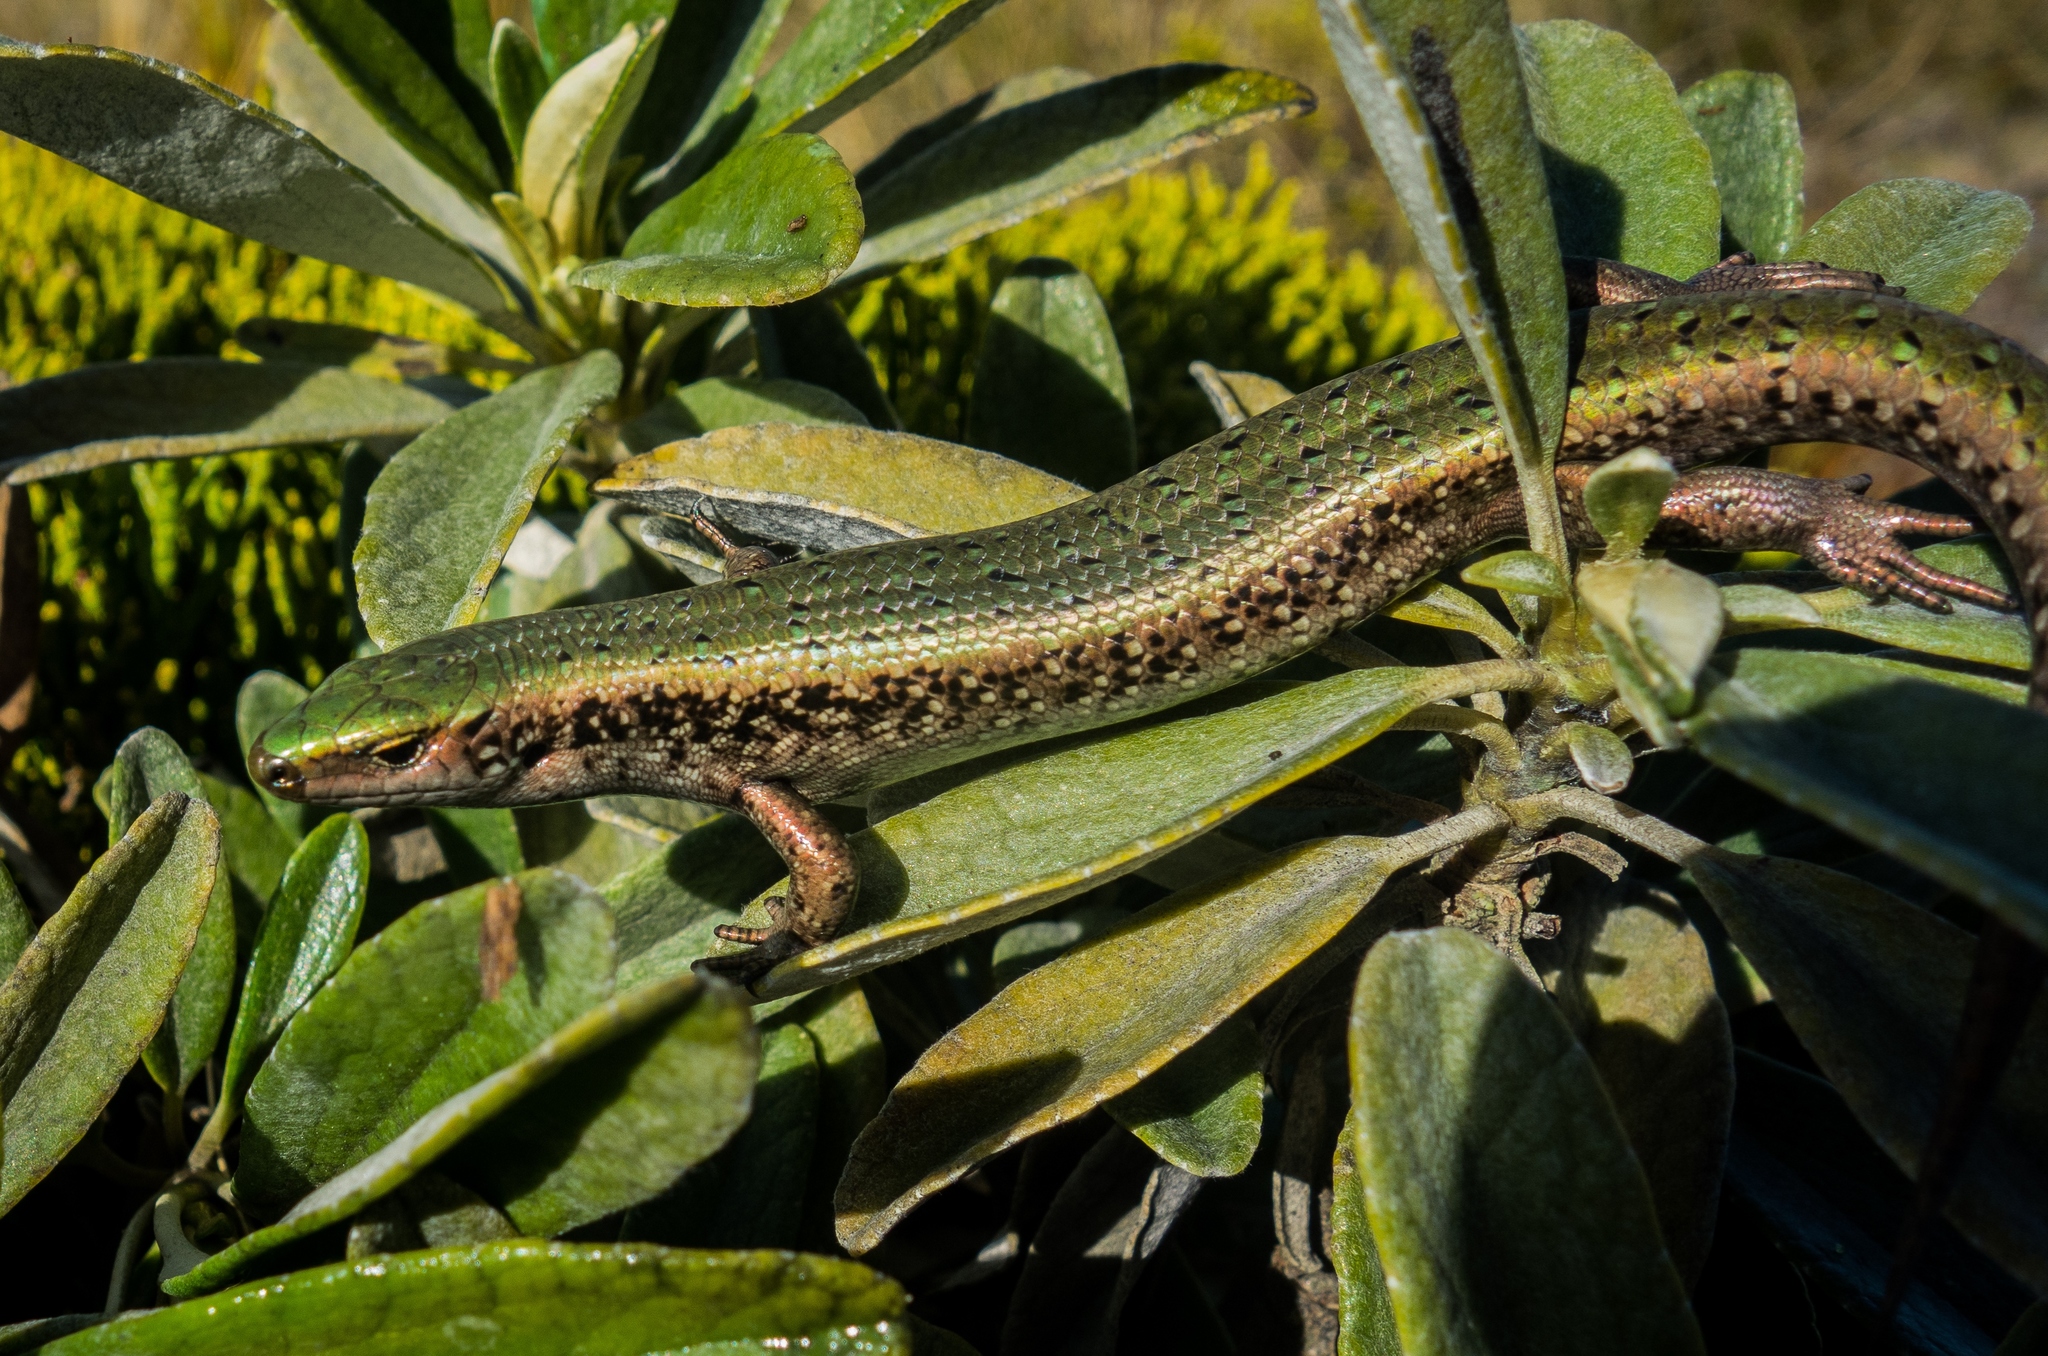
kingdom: Animalia
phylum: Chordata
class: Squamata
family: Scincidae
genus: Oligosoma
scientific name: Oligosoma chloronoton
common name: Green skink
